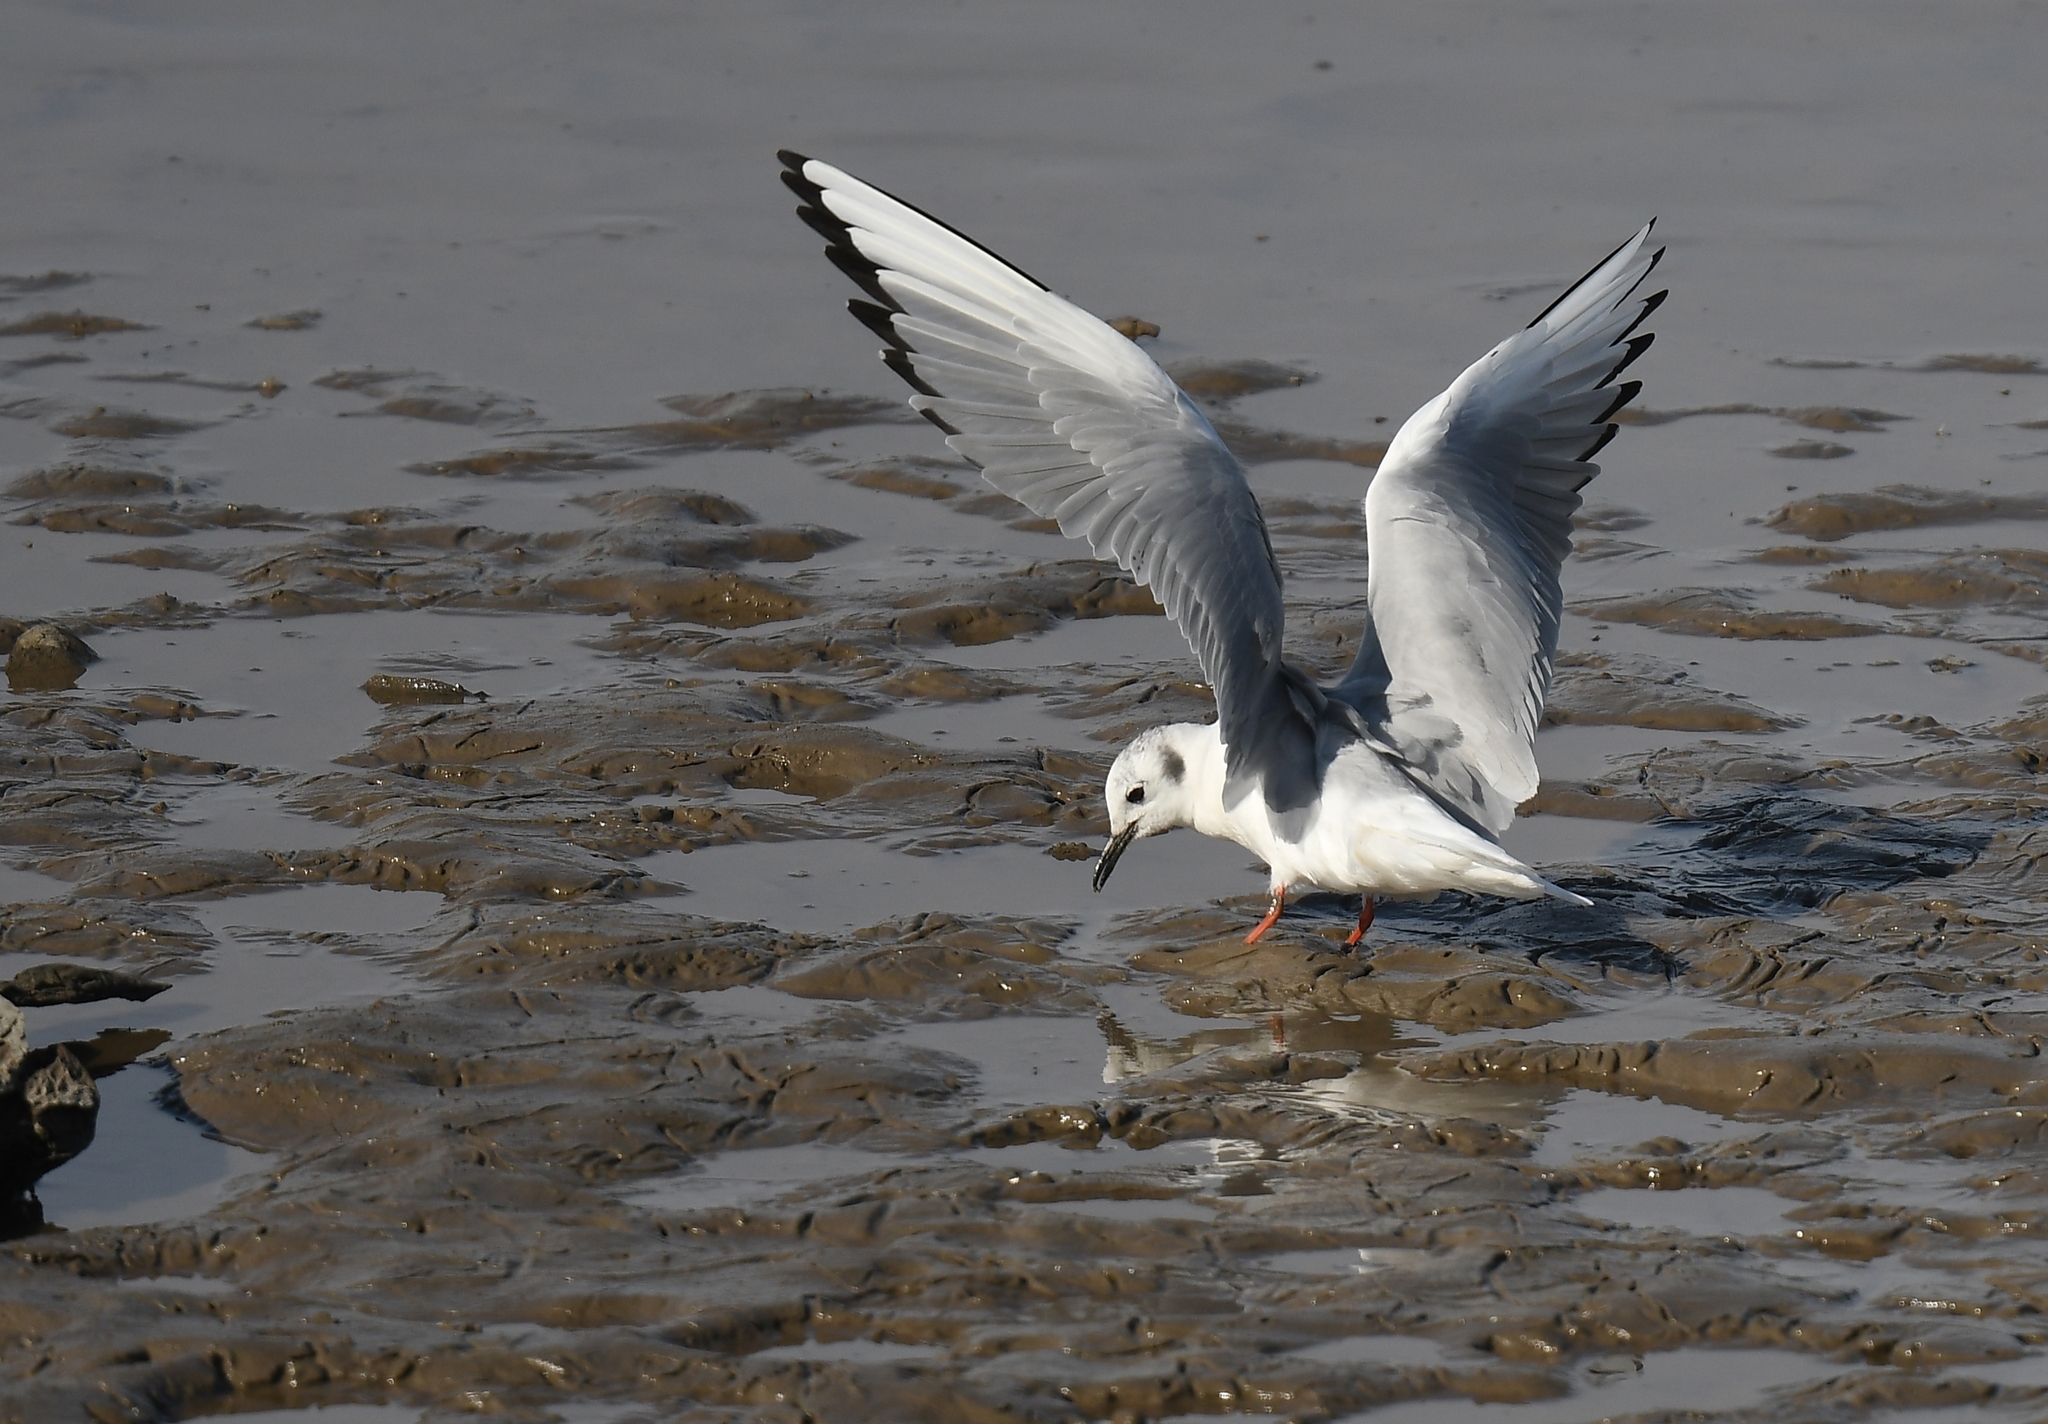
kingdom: Animalia
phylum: Chordata
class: Aves
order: Charadriiformes
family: Laridae
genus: Chroicocephalus
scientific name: Chroicocephalus philadelphia
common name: Bonaparte's gull
